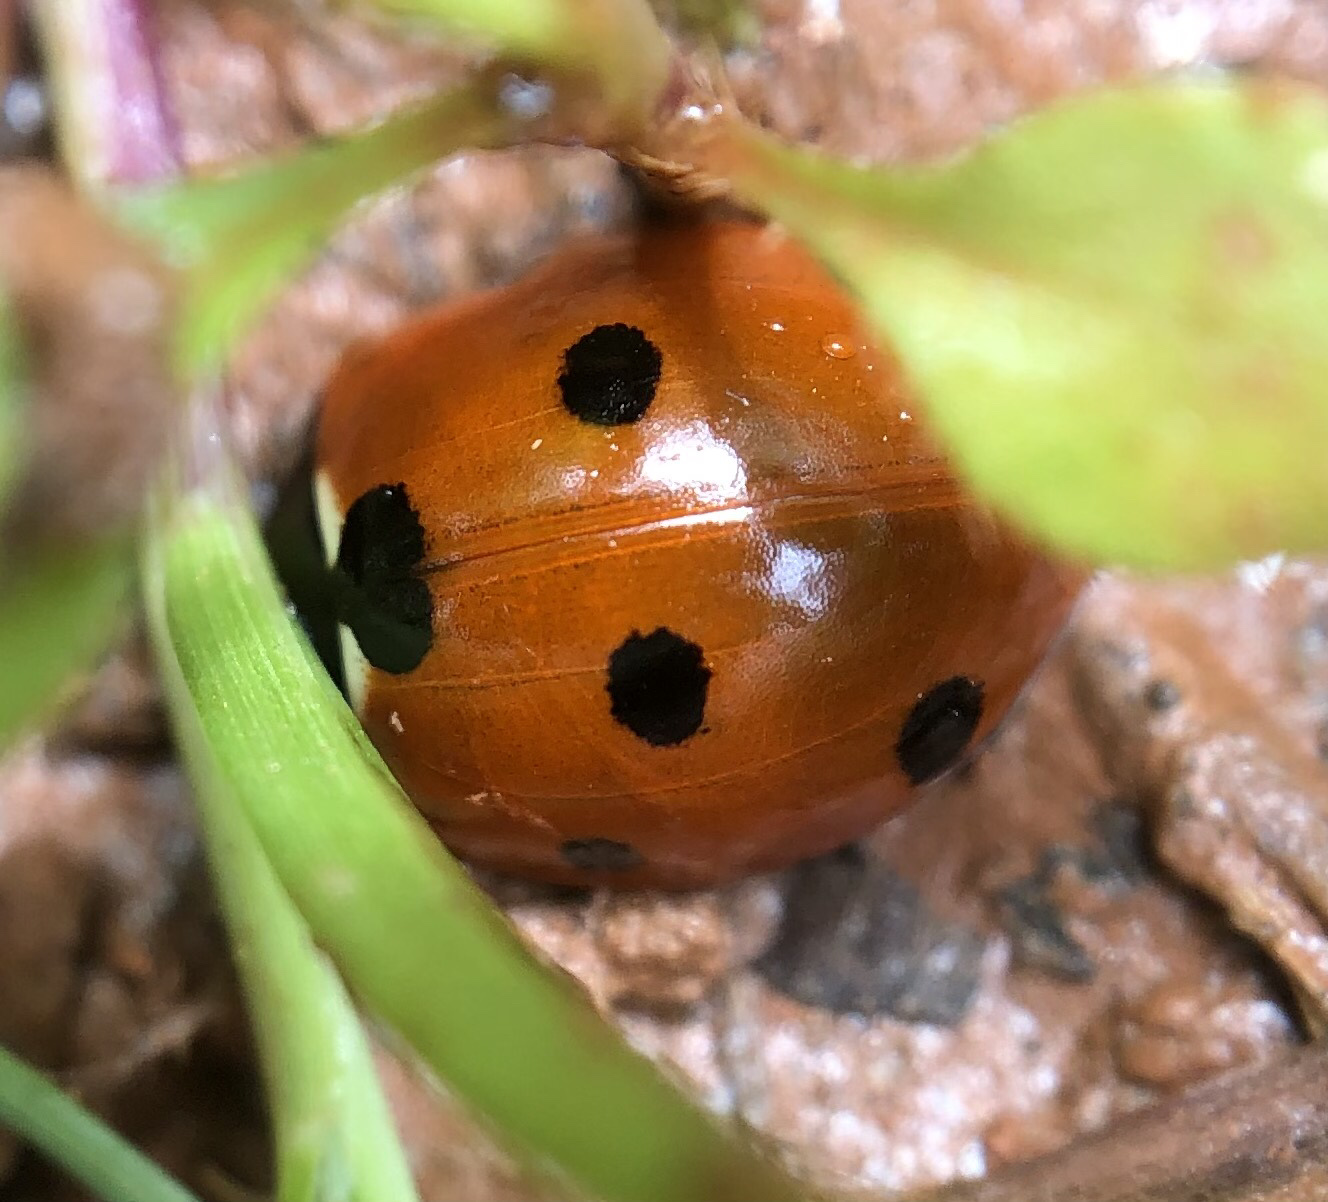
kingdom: Animalia
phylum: Arthropoda
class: Insecta
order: Coleoptera
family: Coccinellidae
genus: Coccinella
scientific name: Coccinella septempunctata
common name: Sevenspotted lady beetle
